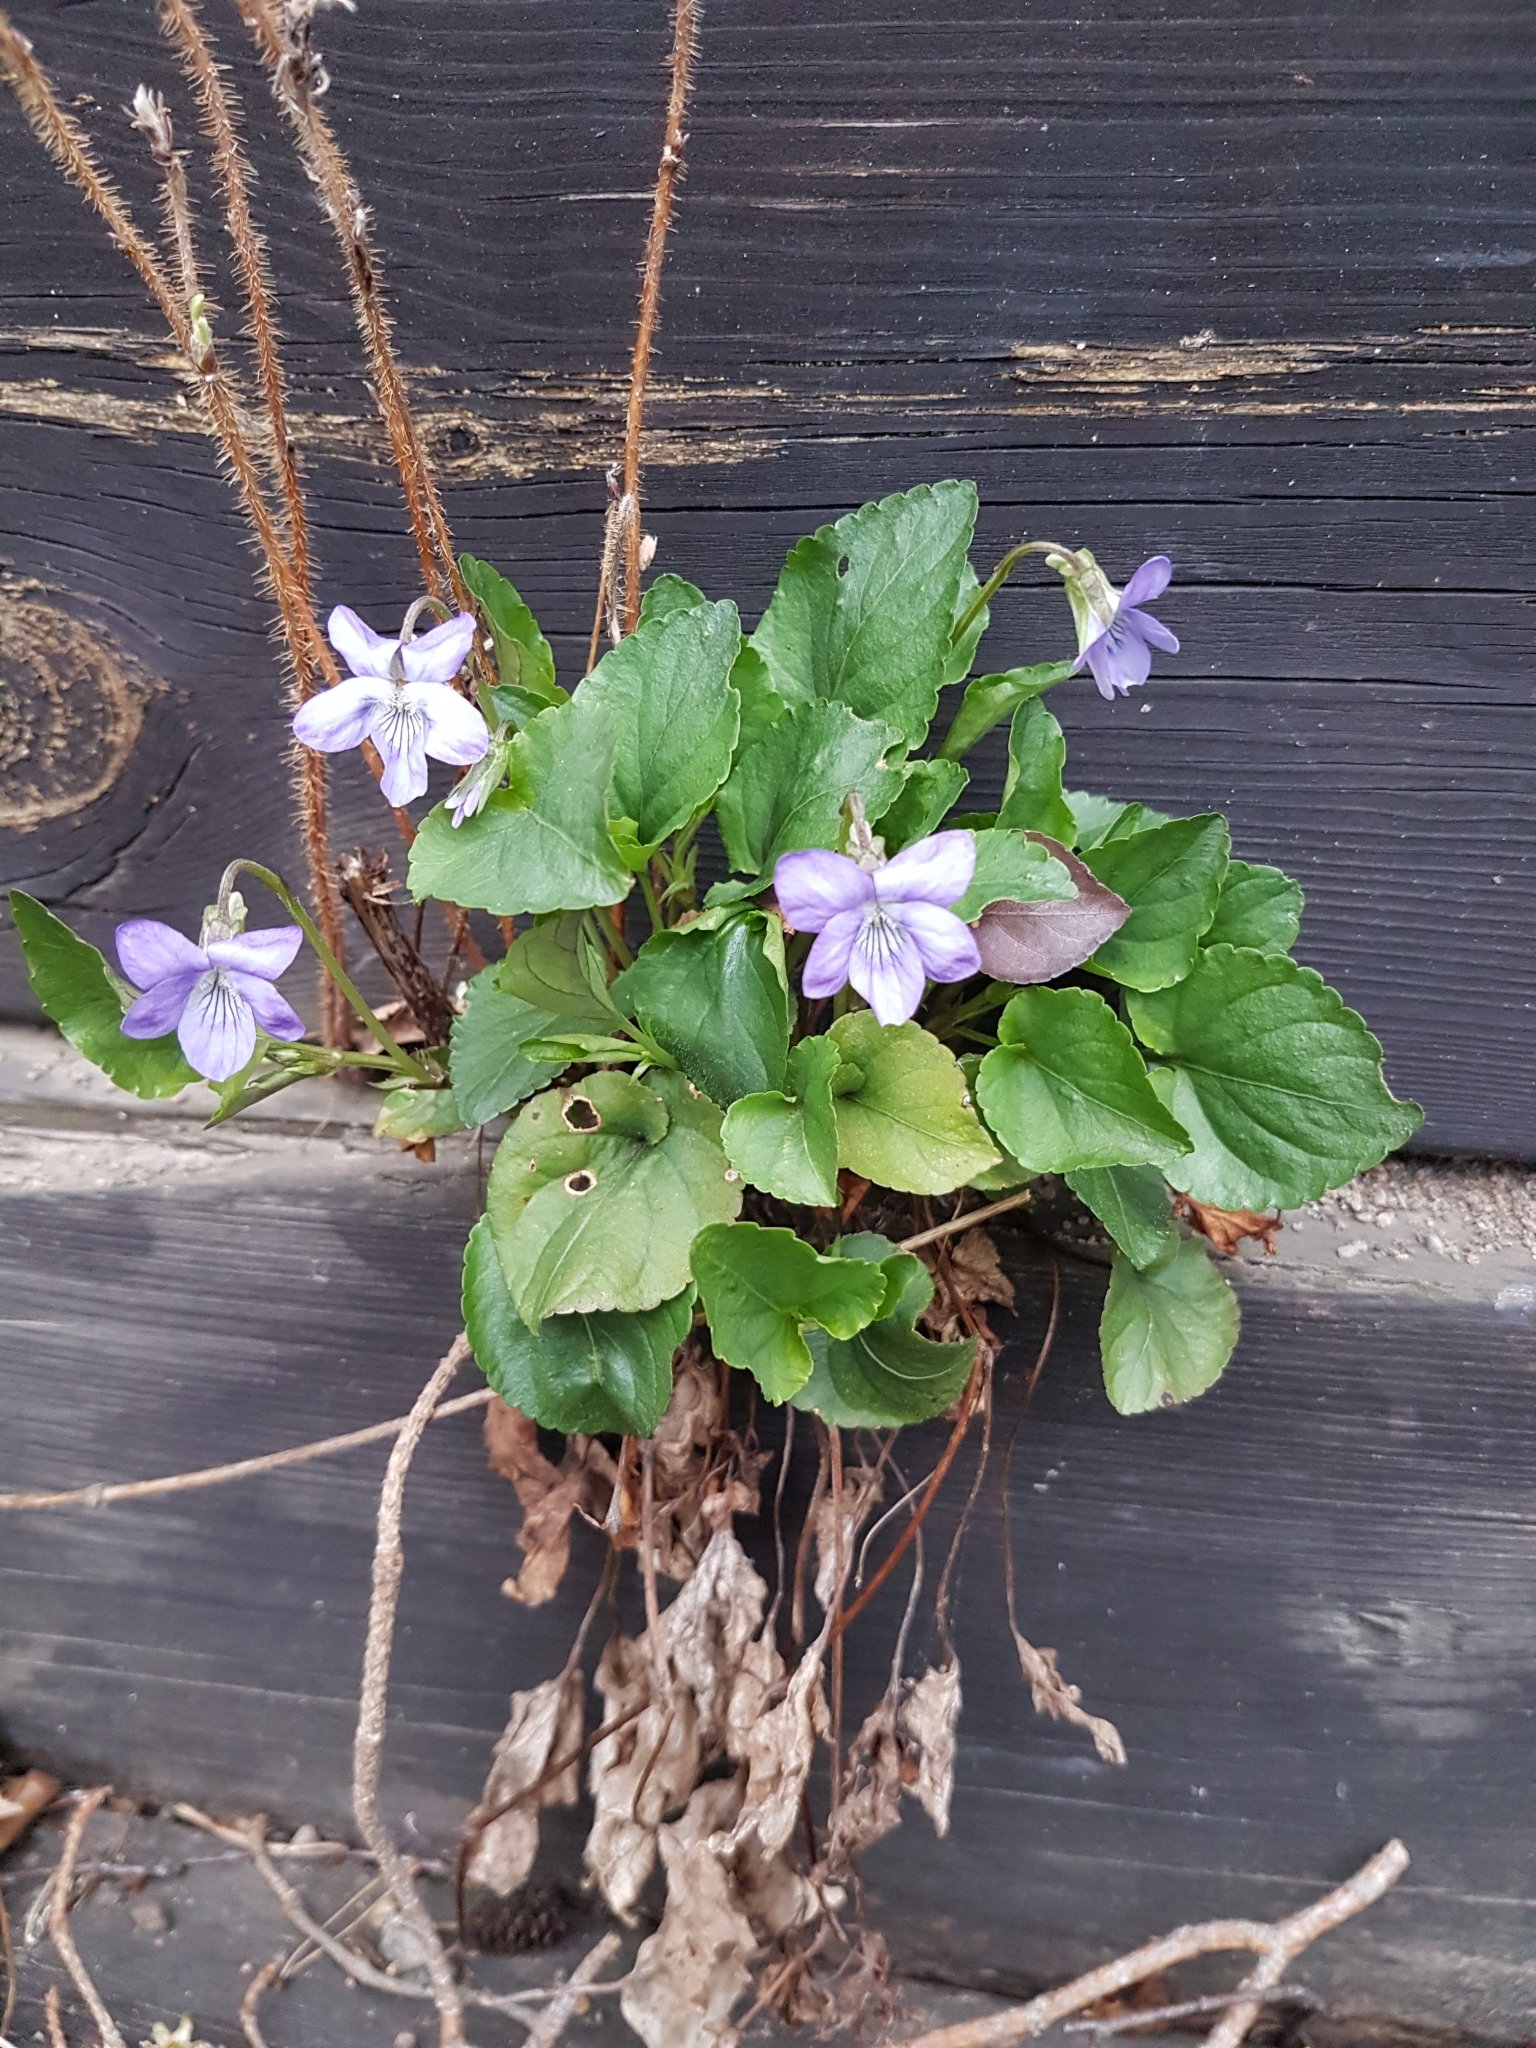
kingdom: Plantae
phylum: Tracheophyta
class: Magnoliopsida
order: Malpighiales
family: Violaceae
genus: Viola
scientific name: Viola riviniana
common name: Common dog-violet
